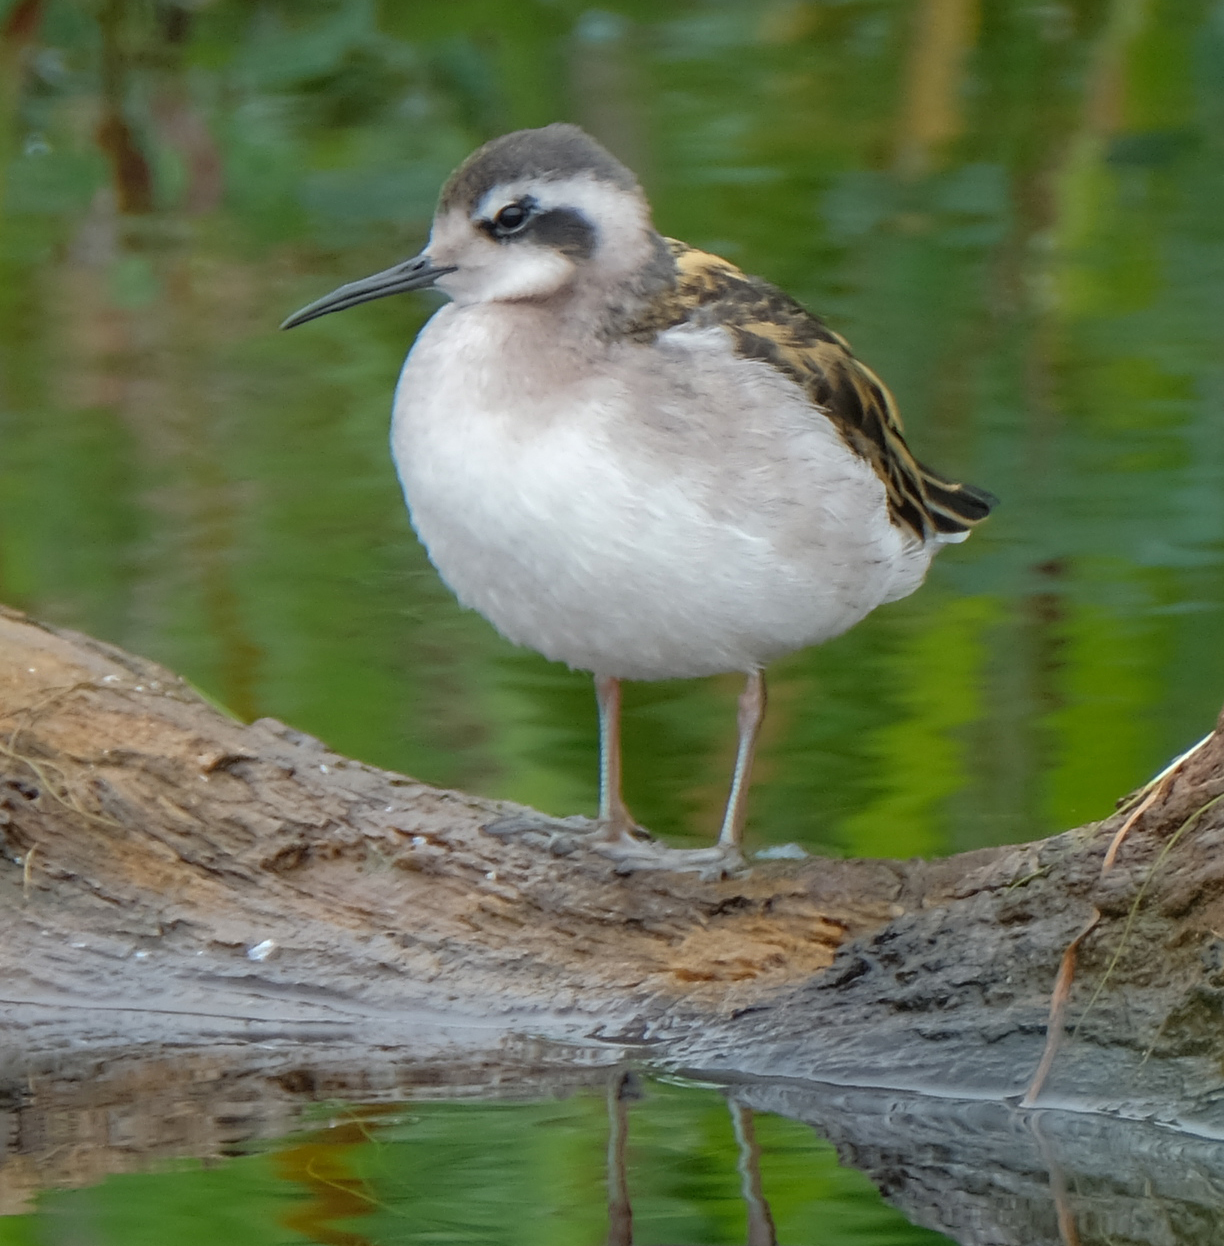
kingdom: Animalia
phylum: Chordata
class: Aves
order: Charadriiformes
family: Scolopacidae
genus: Phalaropus
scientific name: Phalaropus lobatus
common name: Red-necked phalarope
